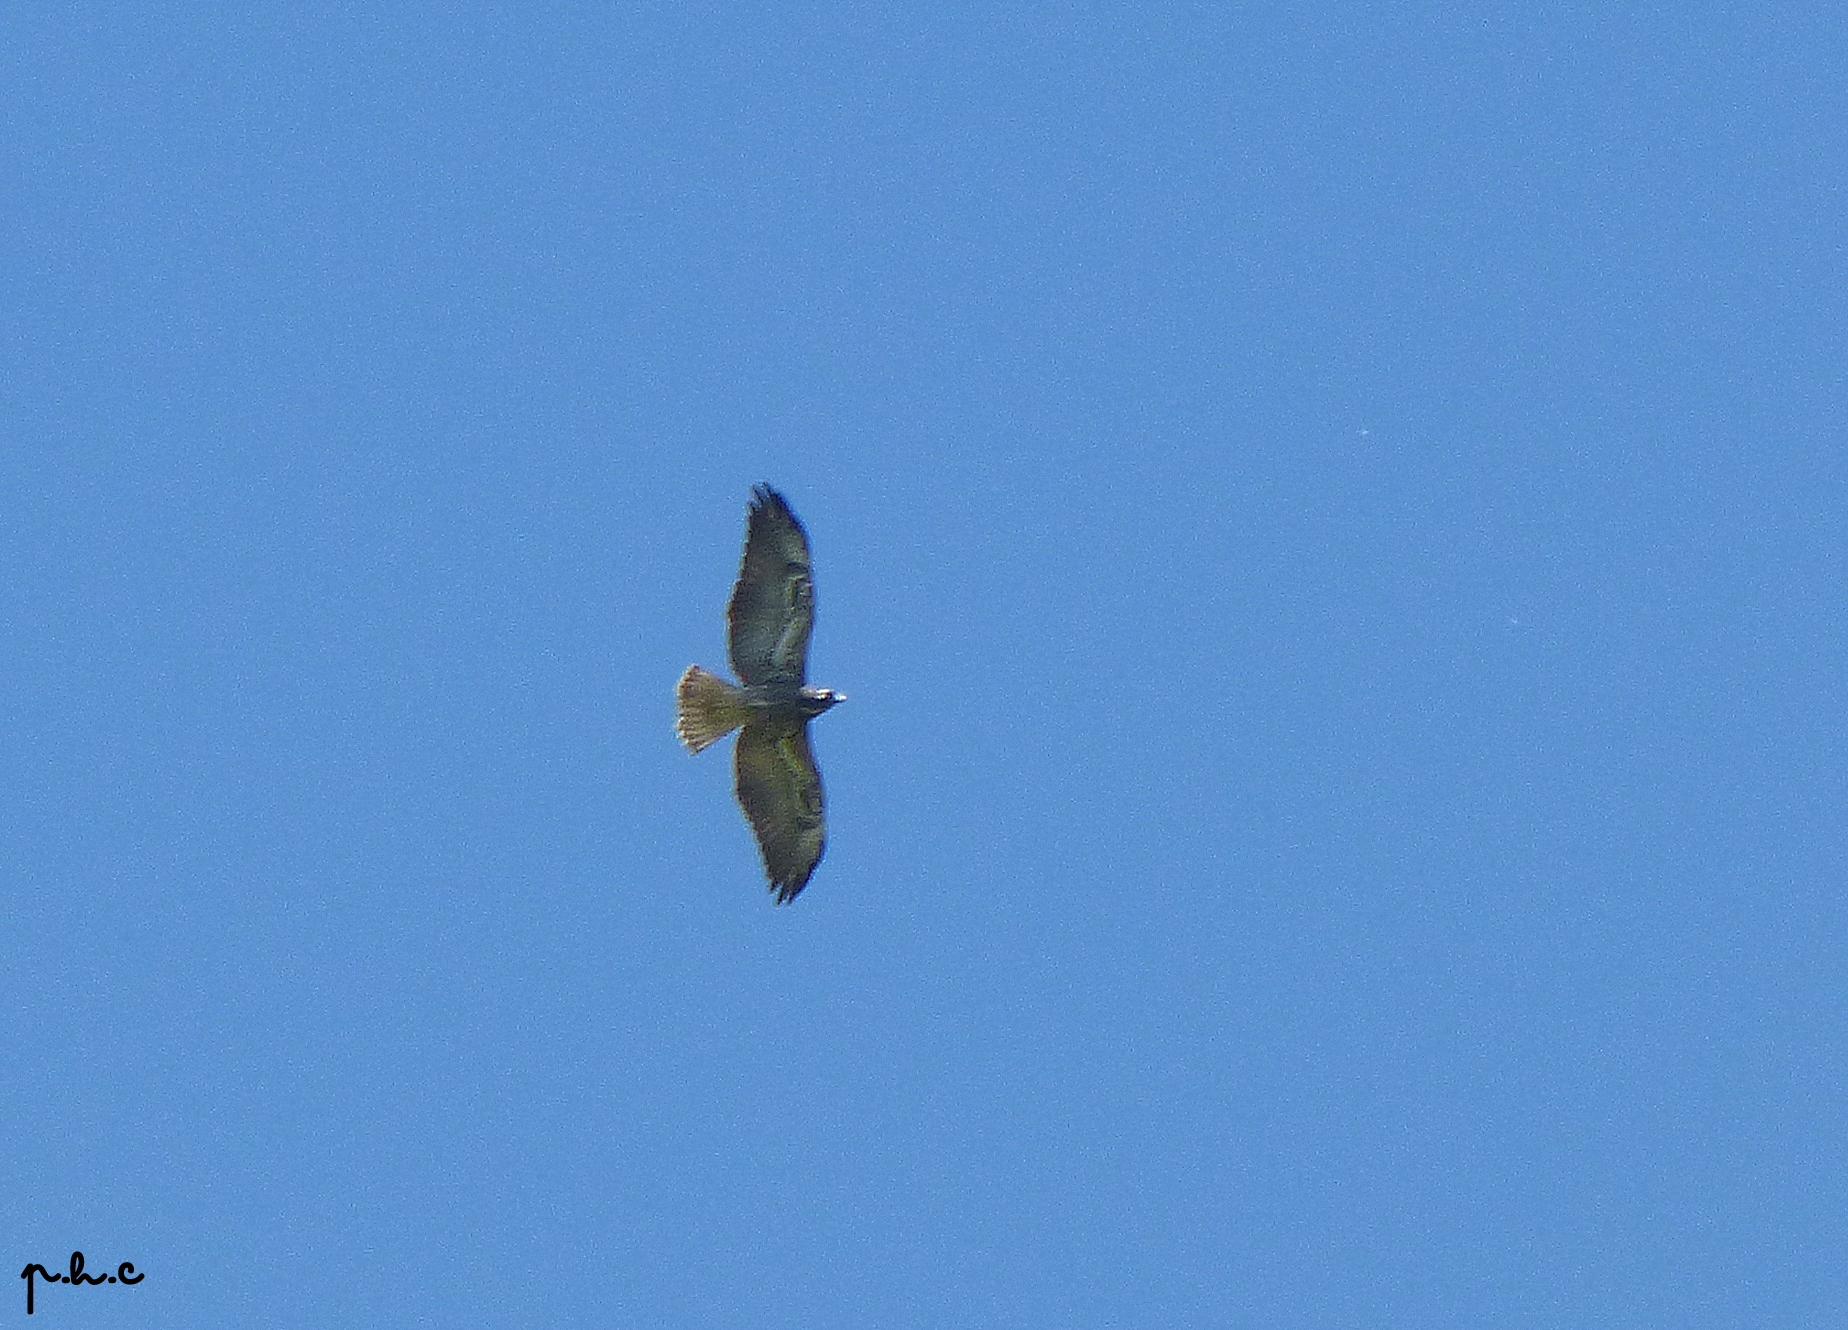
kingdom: Animalia
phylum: Chordata
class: Aves
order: Accipitriformes
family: Accipitridae
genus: Buteo
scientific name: Buteo albicaudatus
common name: White-tailed hawk
